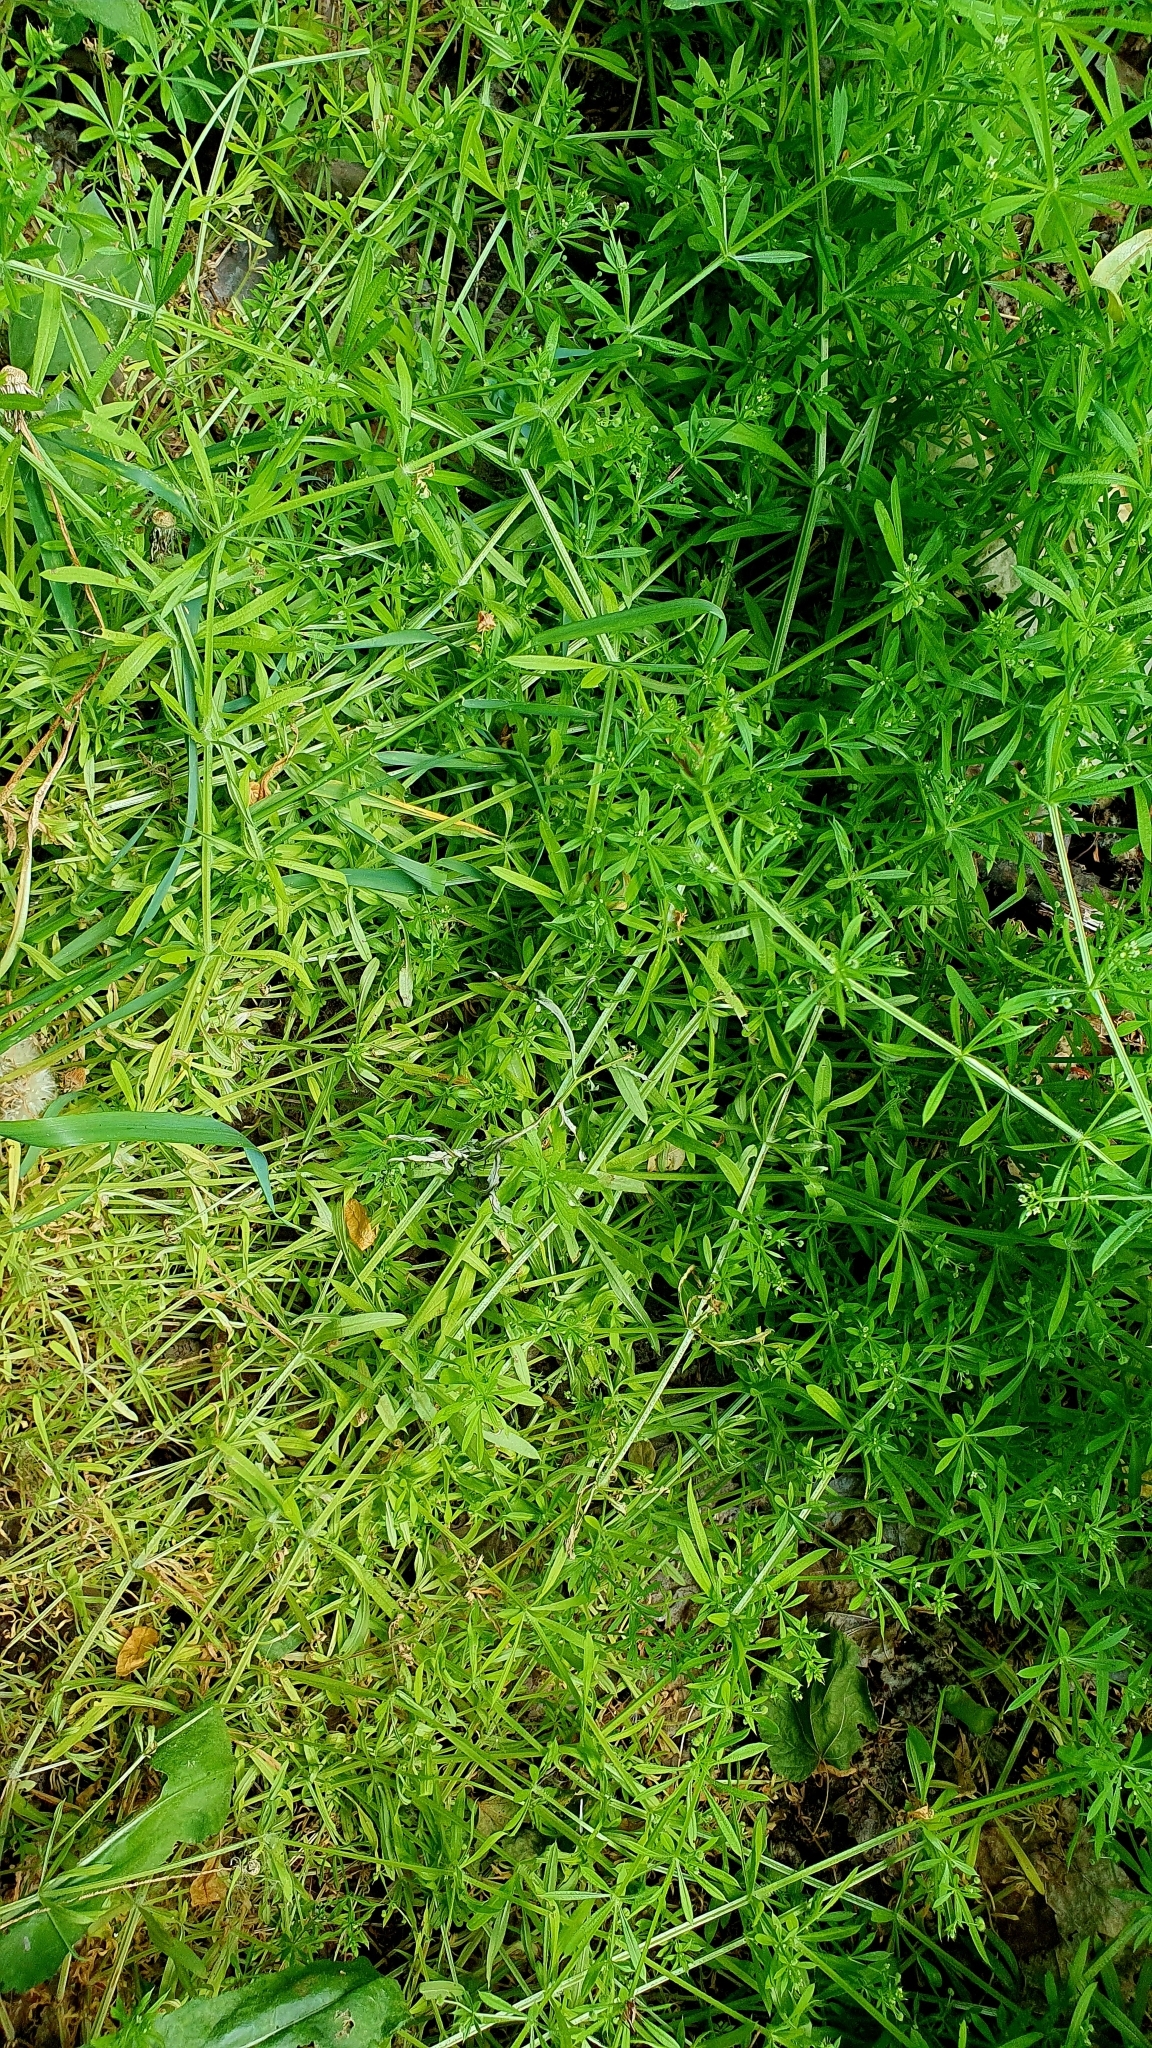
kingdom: Plantae
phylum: Tracheophyta
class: Magnoliopsida
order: Gentianales
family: Rubiaceae
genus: Galium
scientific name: Galium
